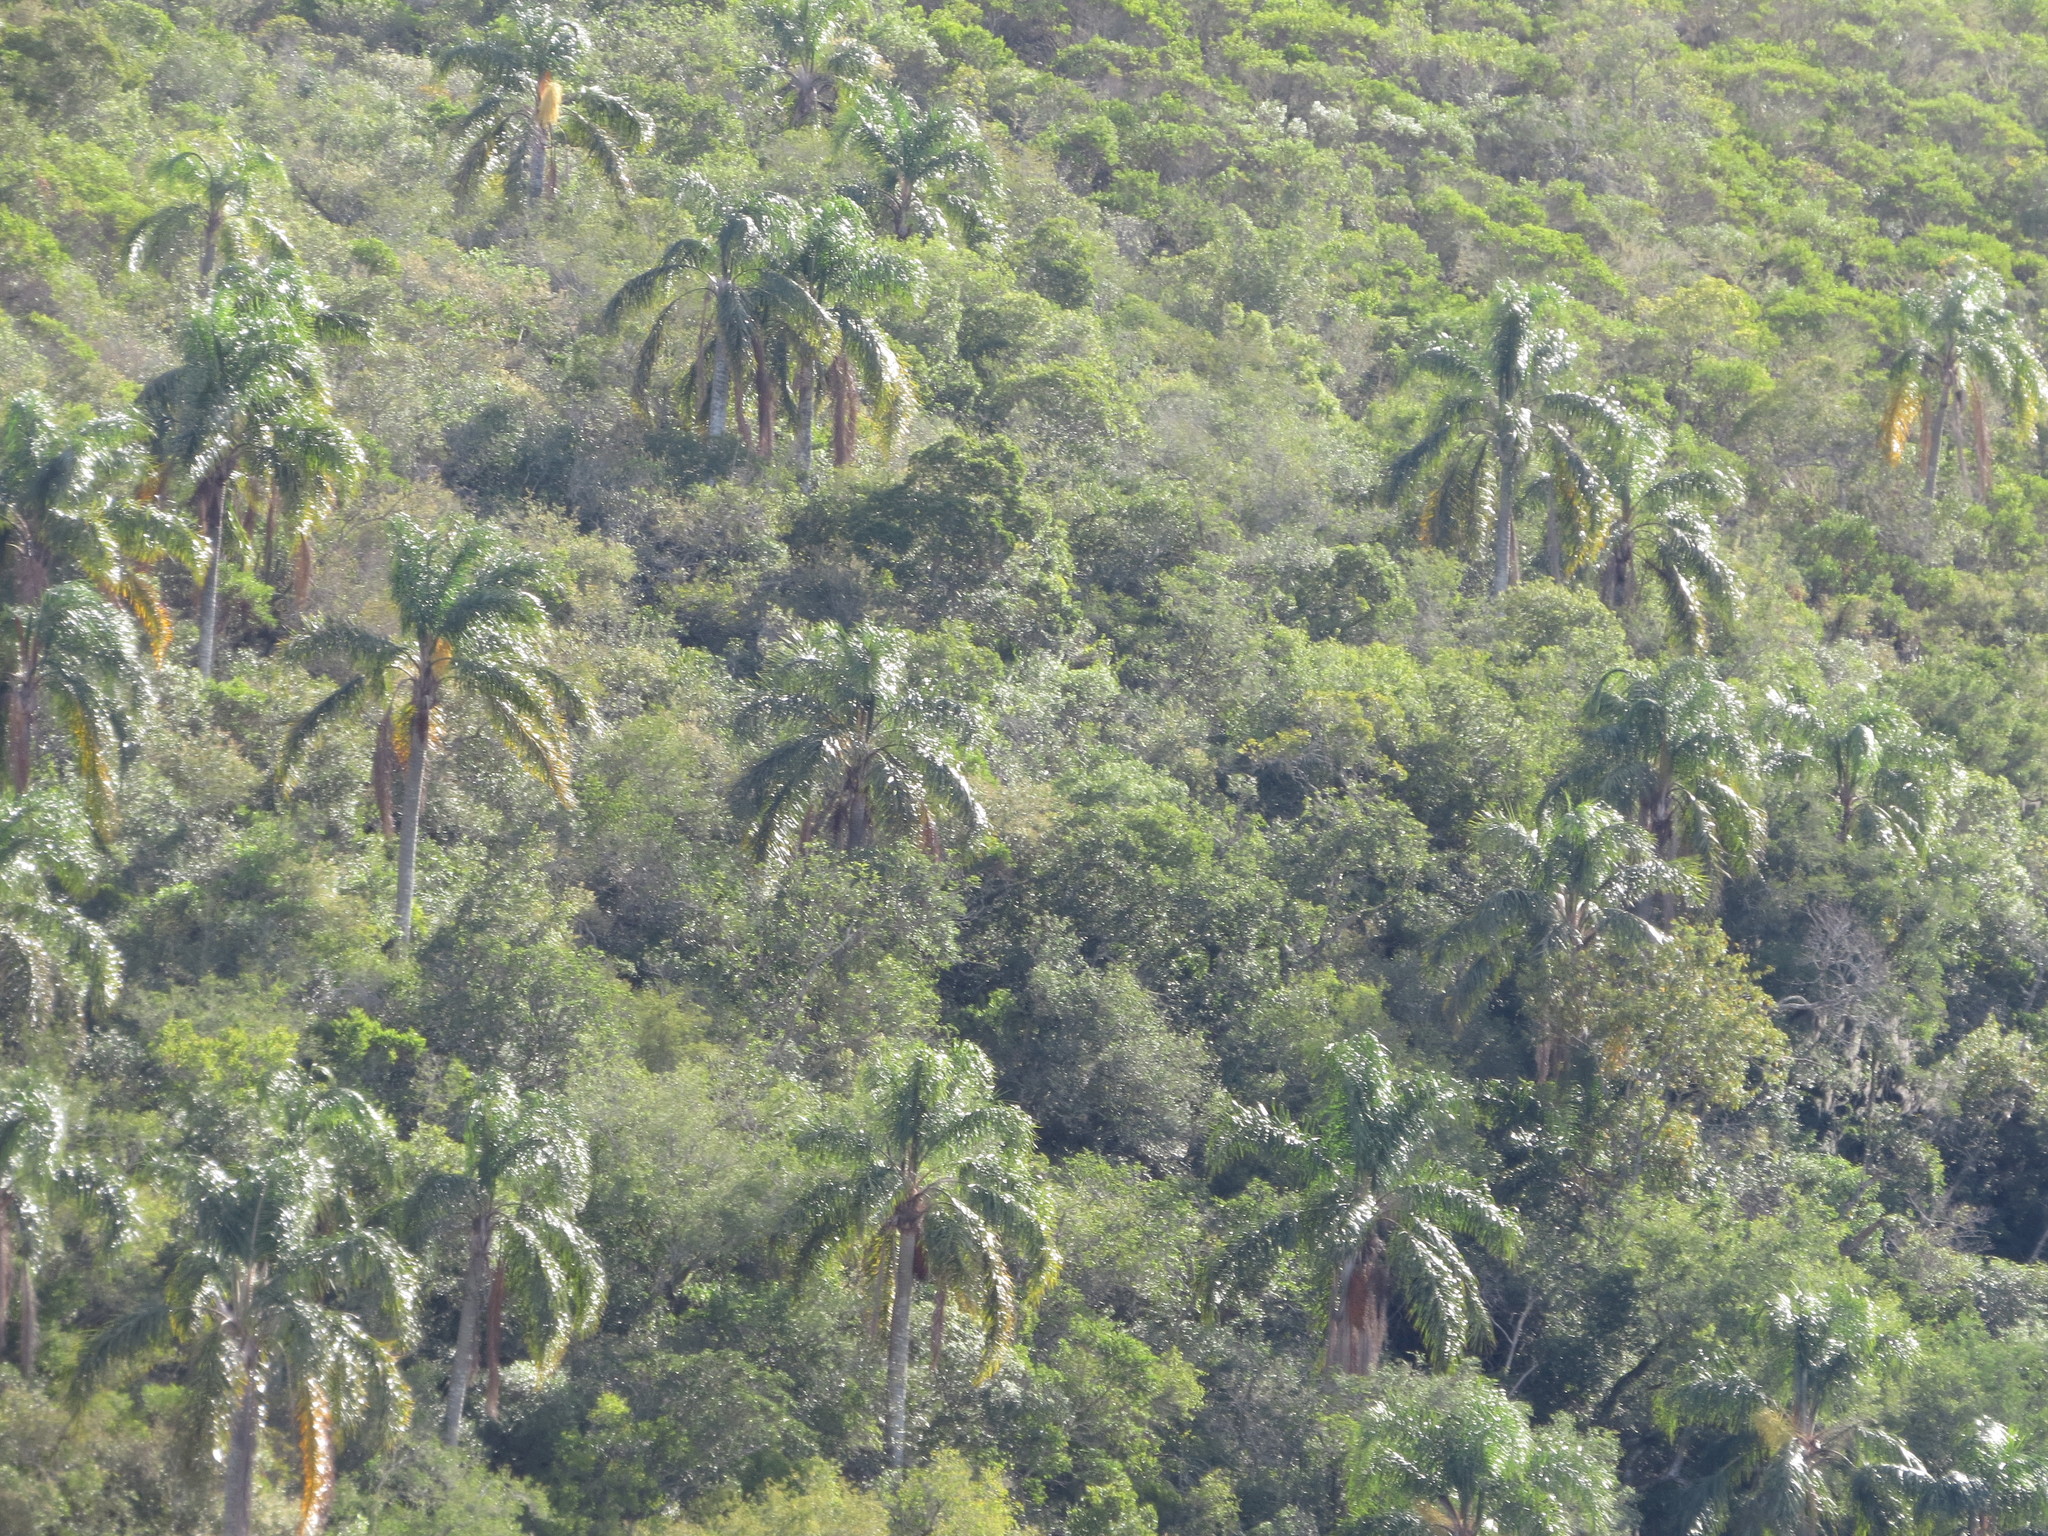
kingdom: Plantae
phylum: Tracheophyta
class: Liliopsida
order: Arecales
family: Arecaceae
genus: Syagrus
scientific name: Syagrus romanzoffiana
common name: Queen palm
